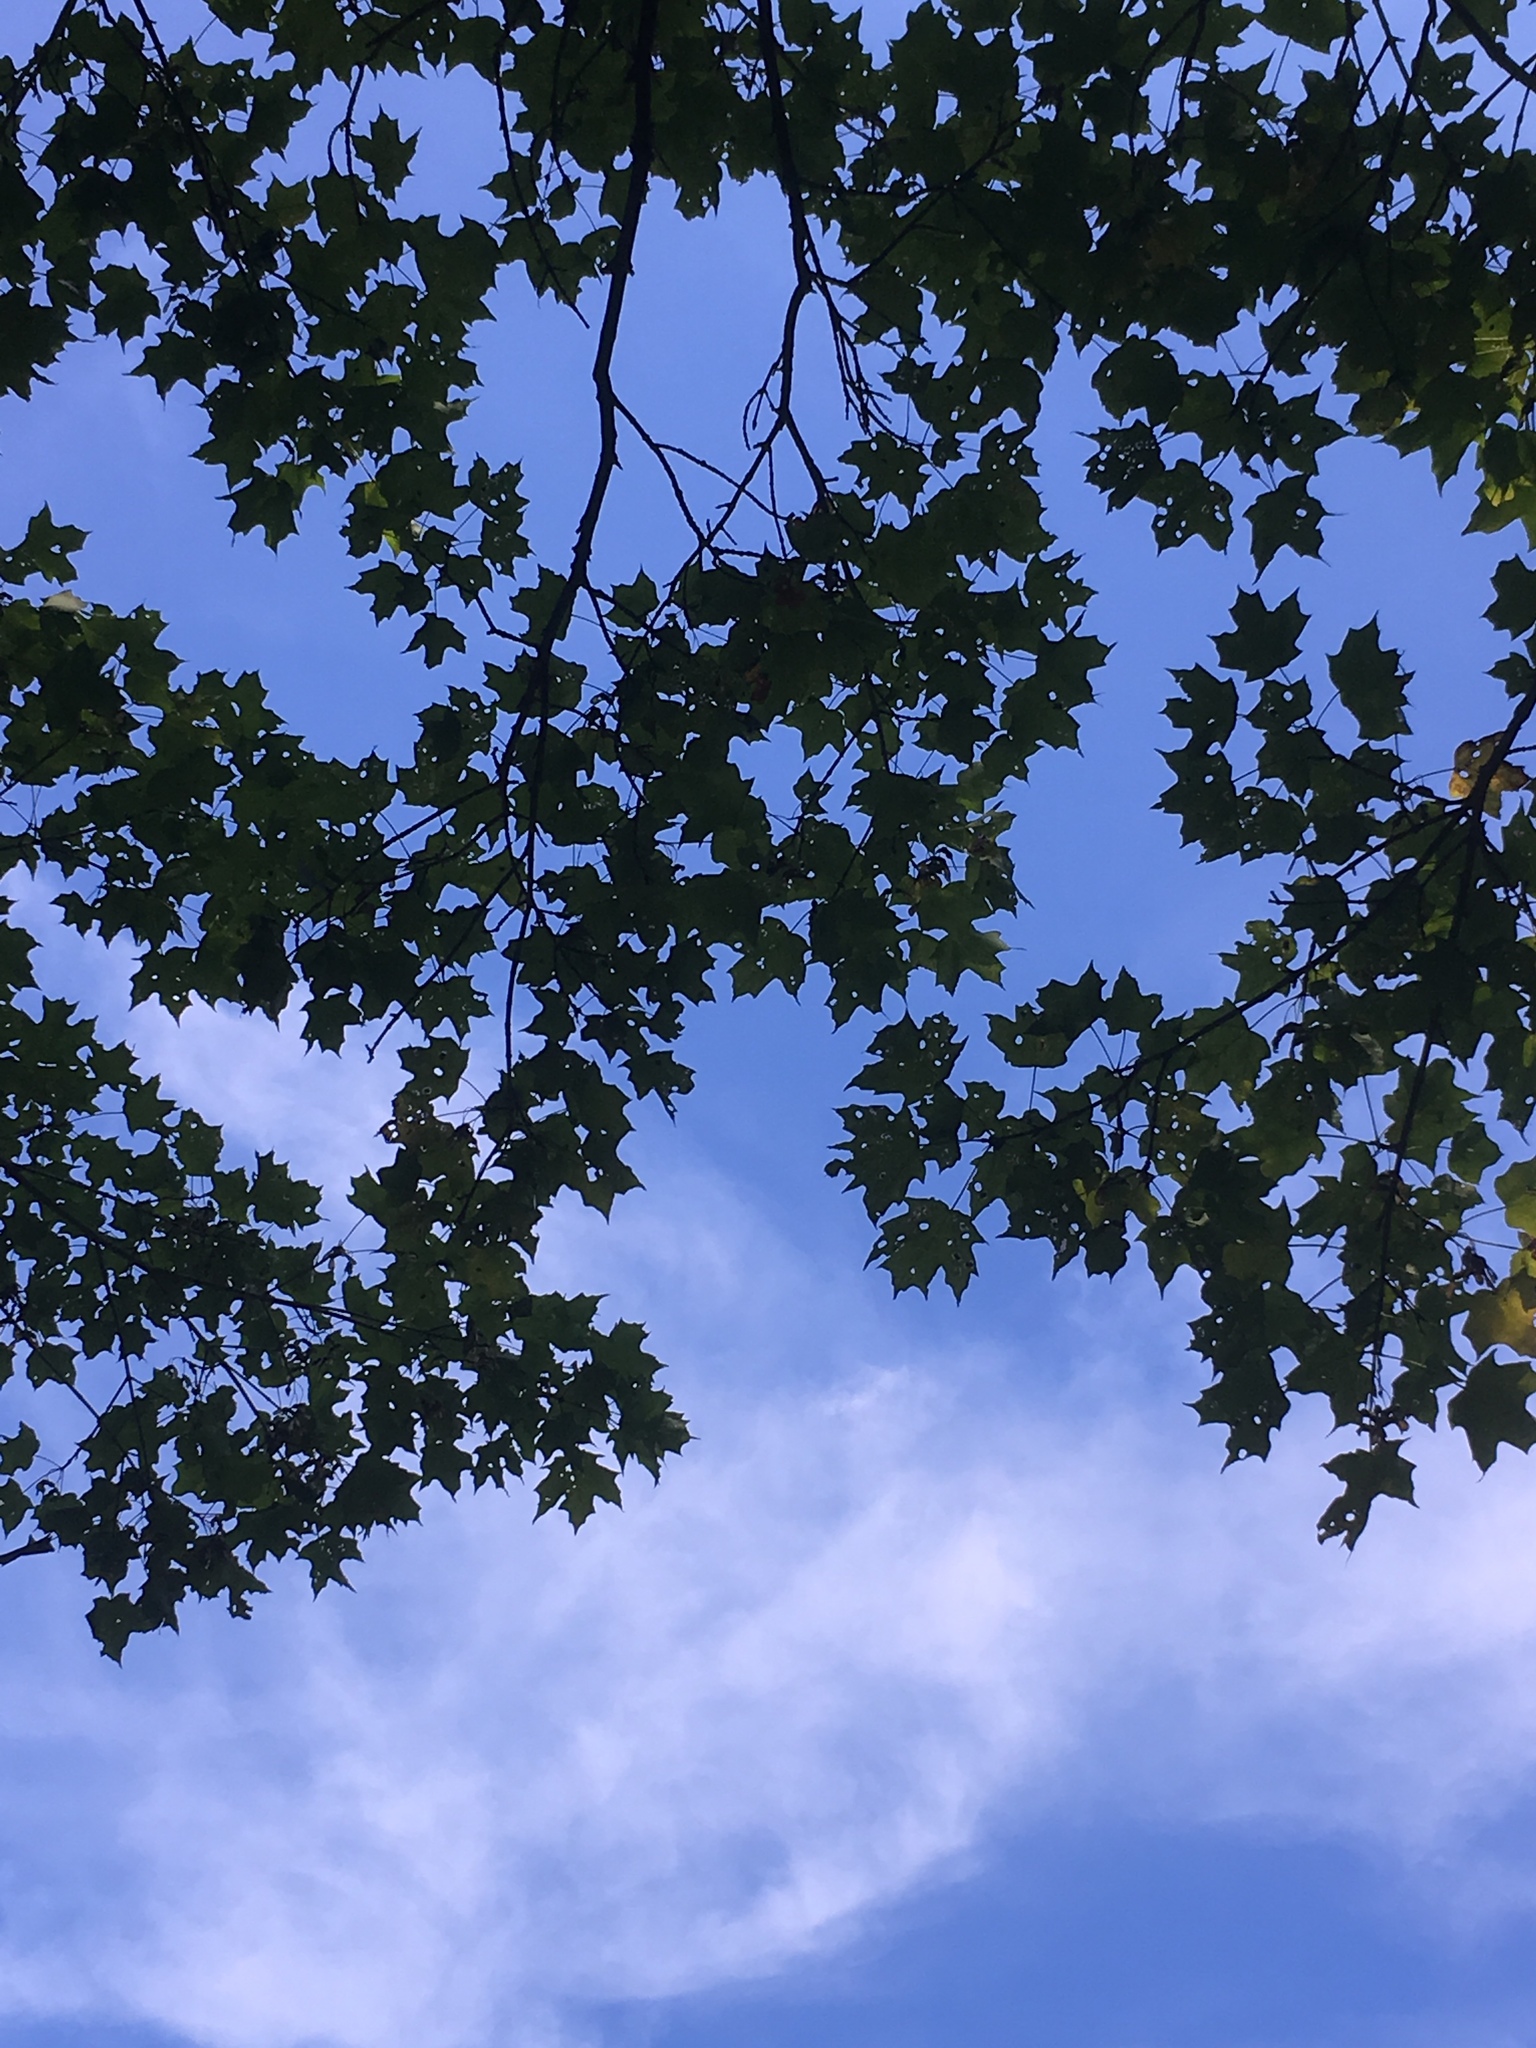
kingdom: Plantae
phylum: Tracheophyta
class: Magnoliopsida
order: Sapindales
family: Sapindaceae
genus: Acer
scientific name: Acer saccharum
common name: Sugar maple
